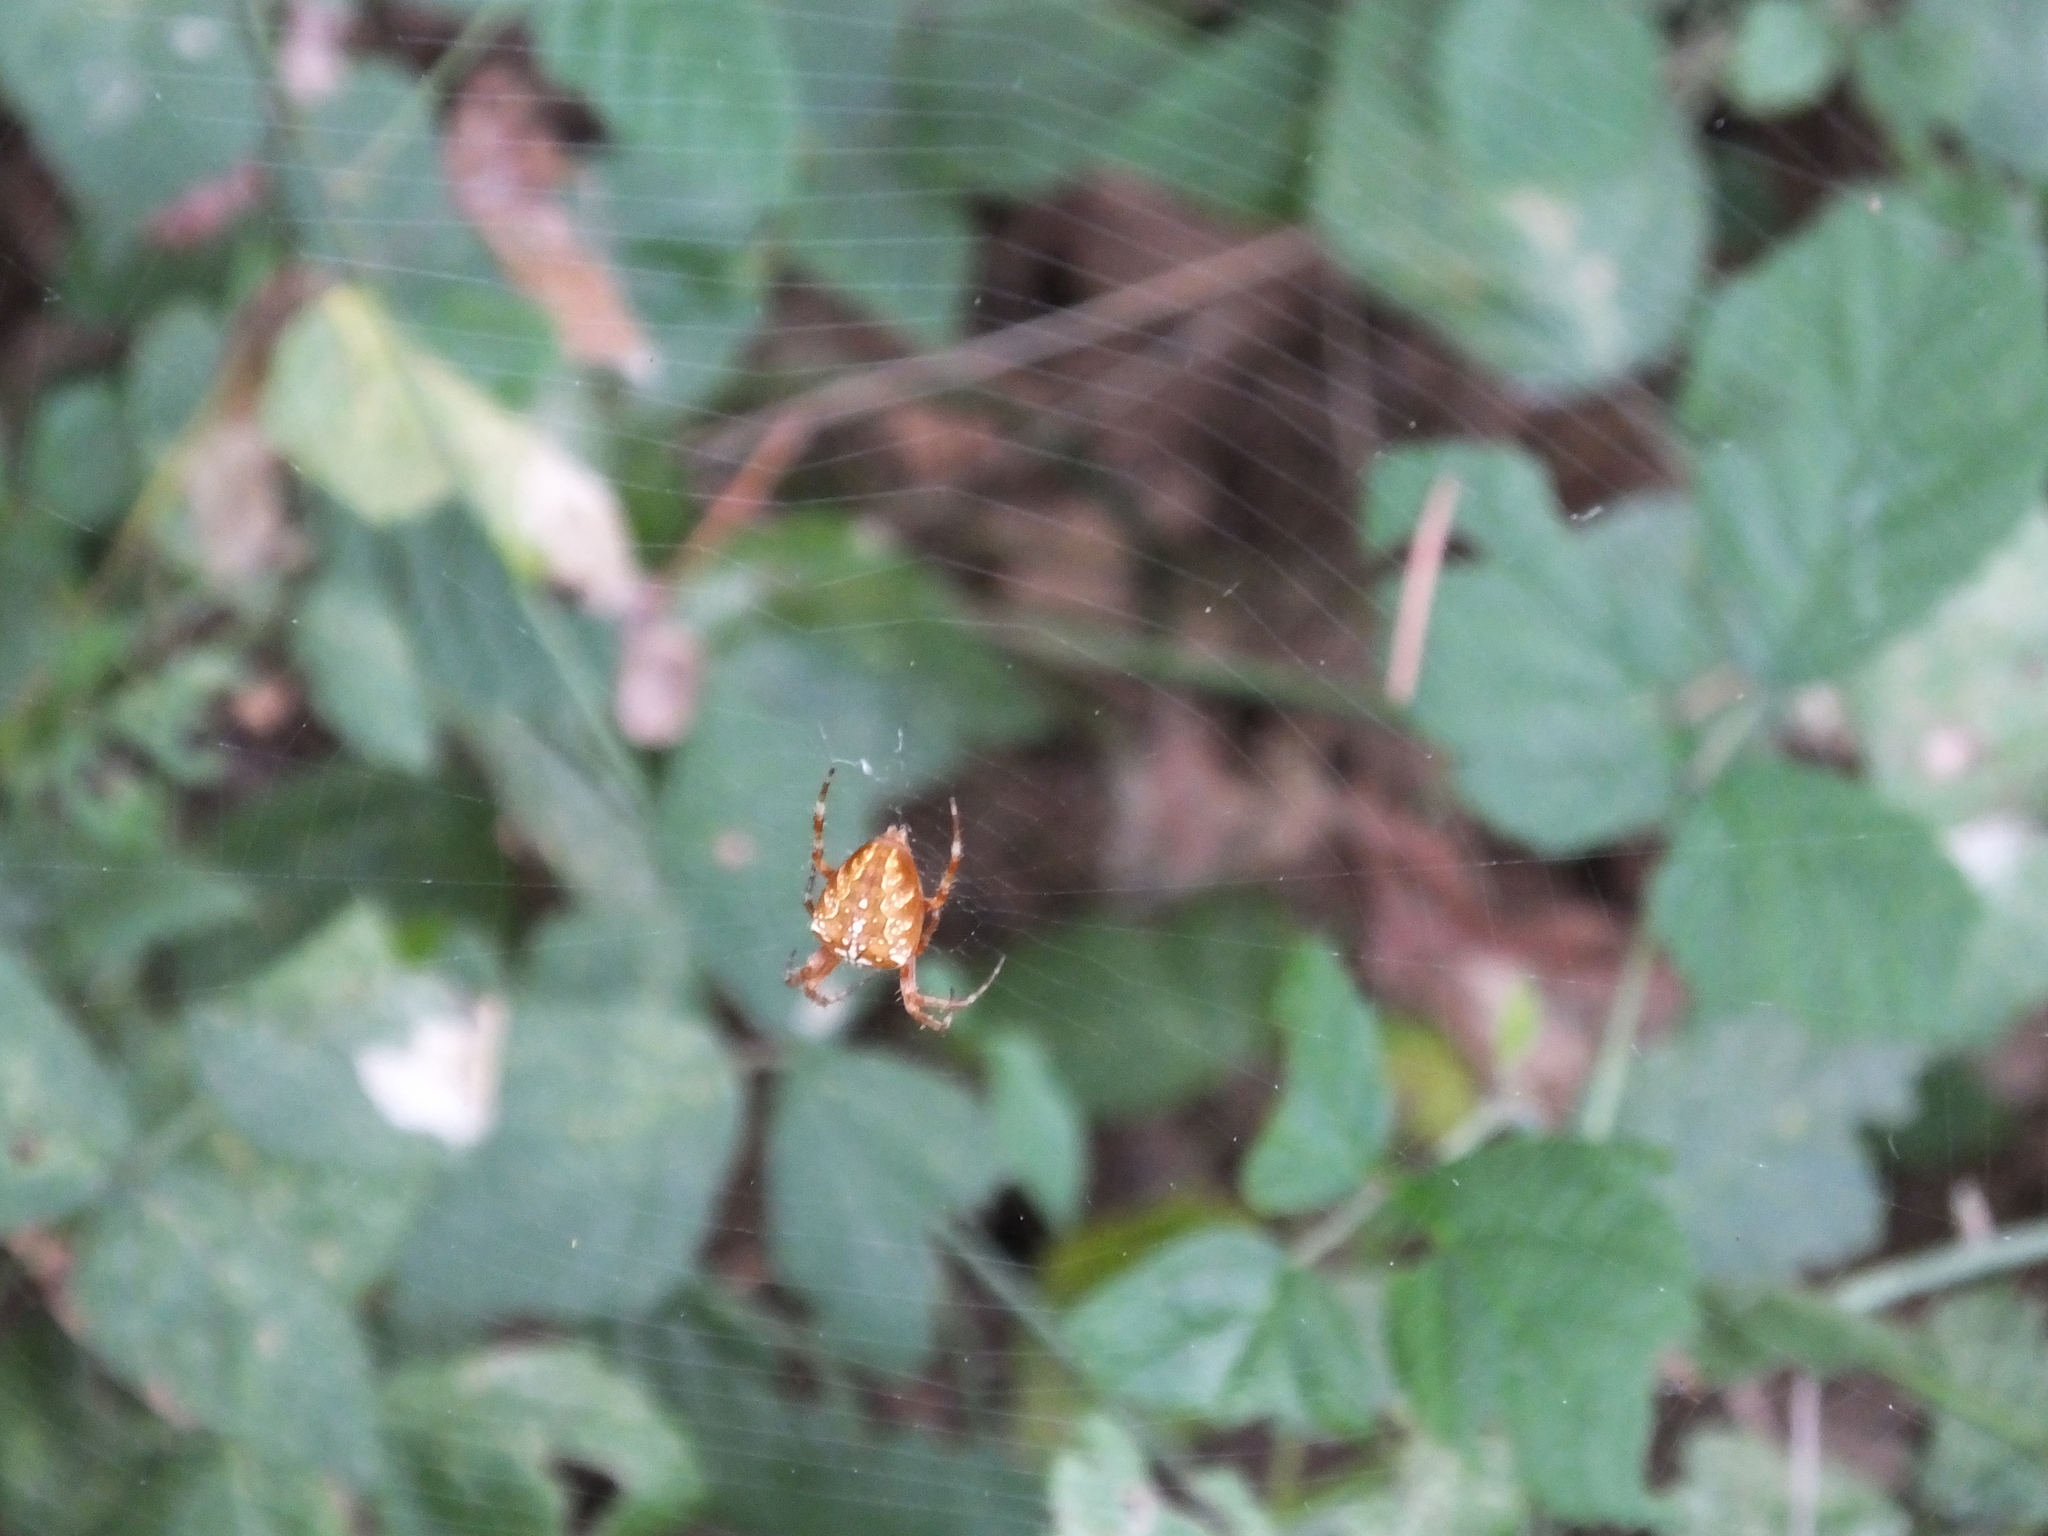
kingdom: Animalia
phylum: Arthropoda
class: Arachnida
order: Araneae
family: Araneidae
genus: Araneus
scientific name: Araneus diadematus
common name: Cross orbweaver
